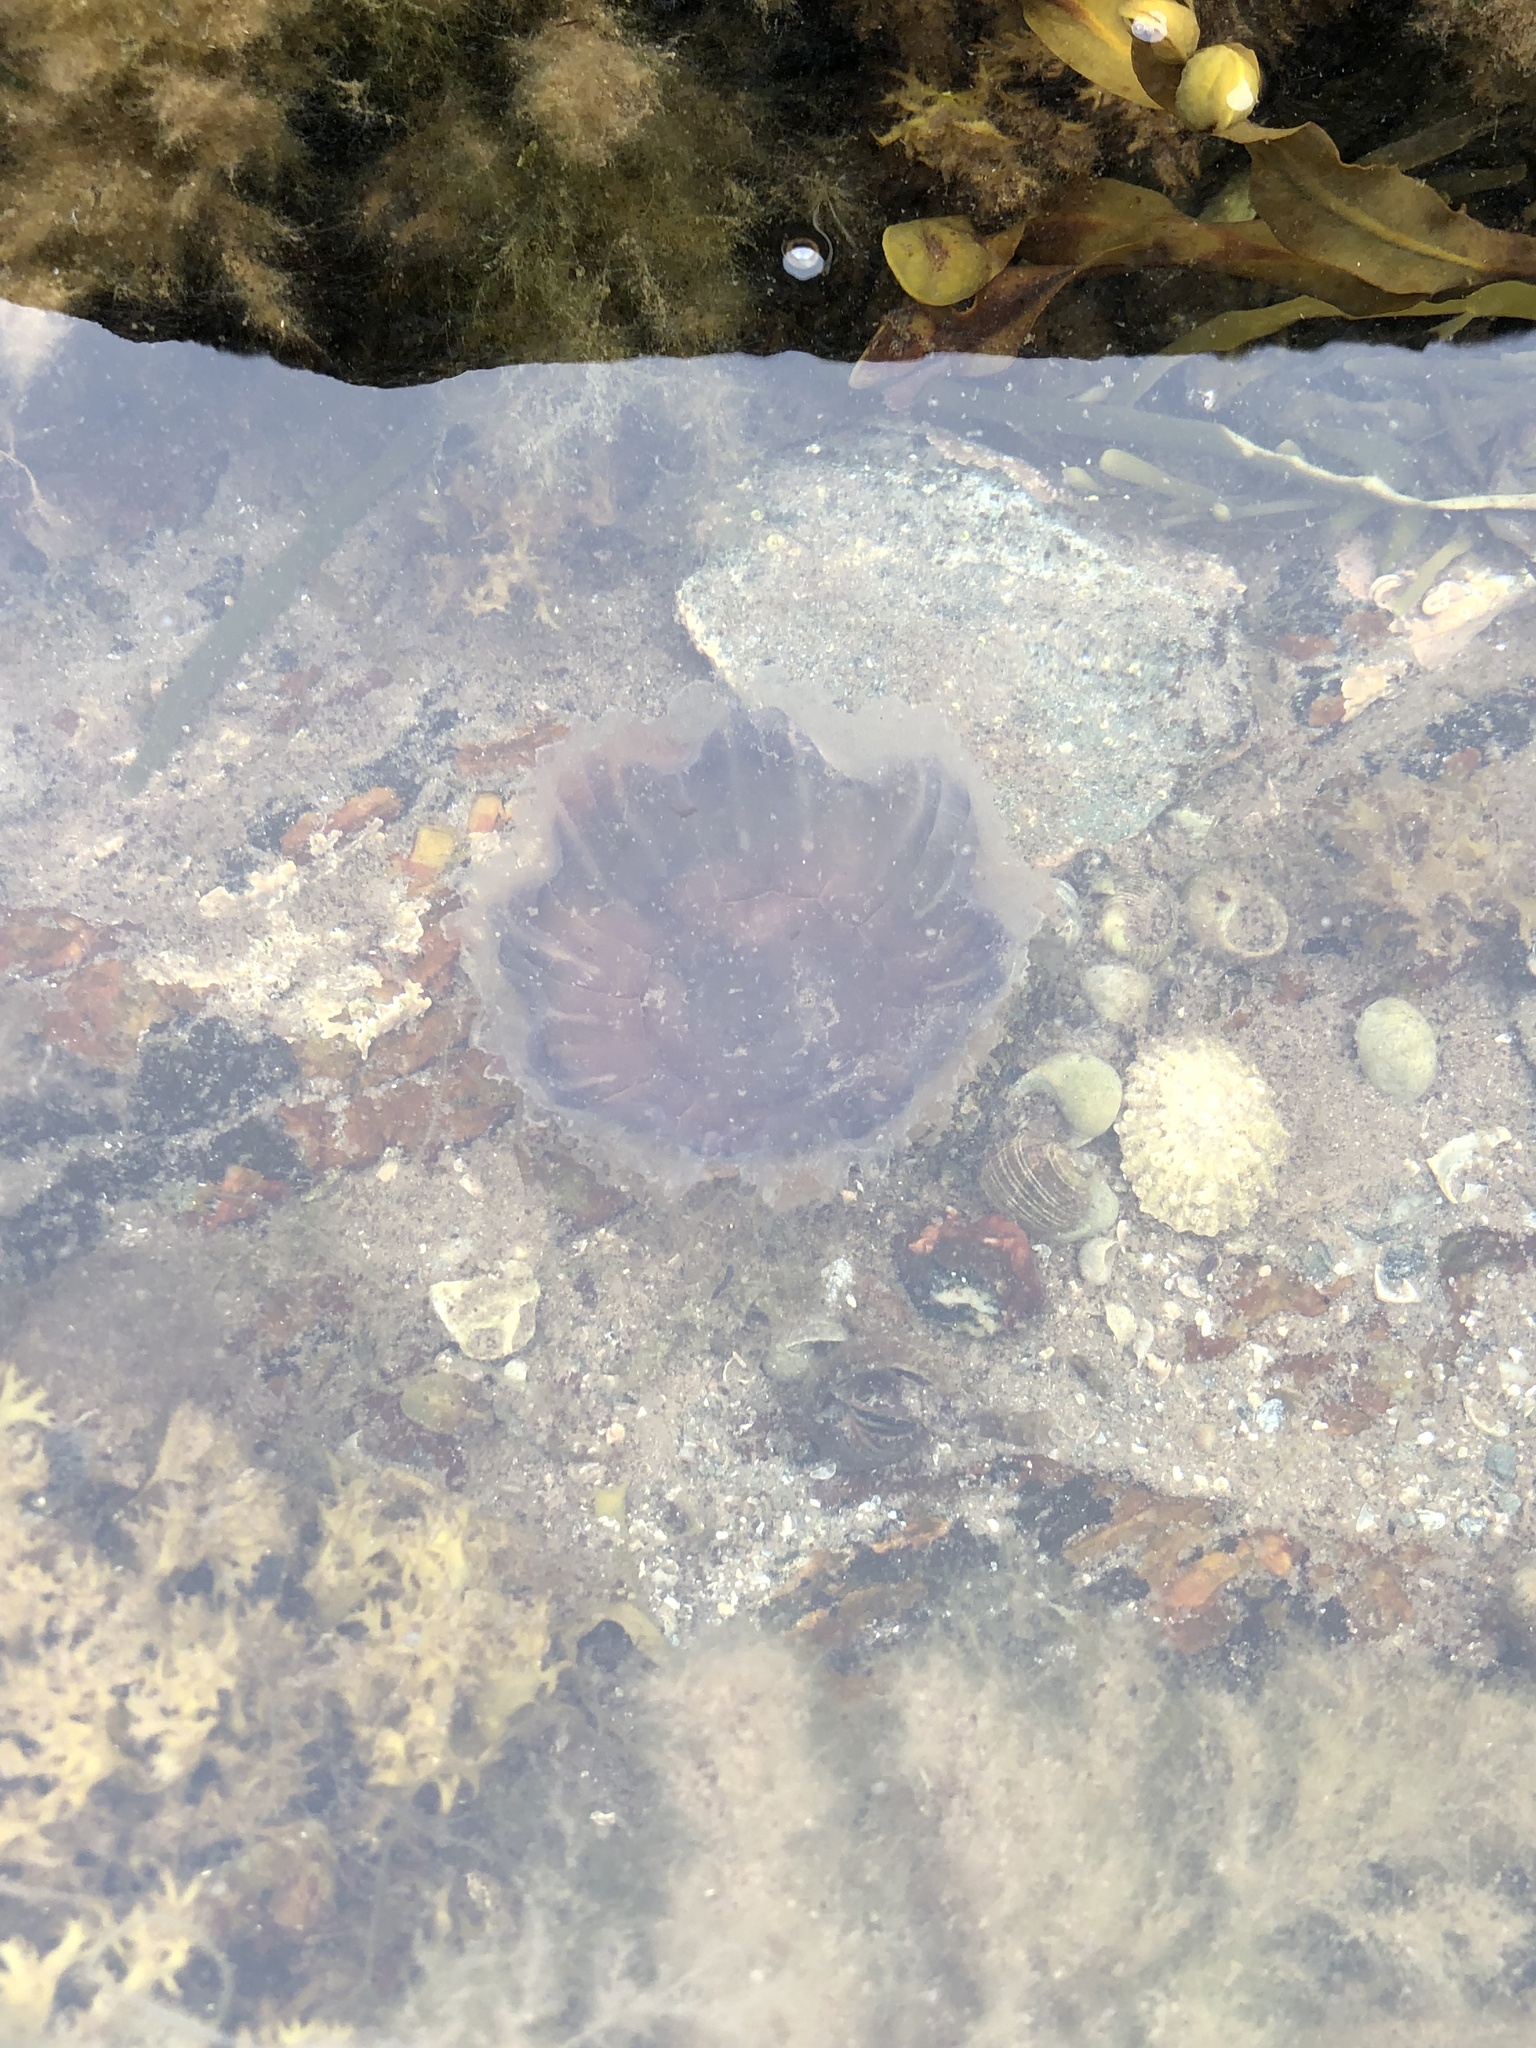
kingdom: Animalia
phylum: Cnidaria
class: Scyphozoa
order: Semaeostomeae
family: Cyaneidae
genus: Cyanea
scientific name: Cyanea lamarckii
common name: Blue jellyfish
